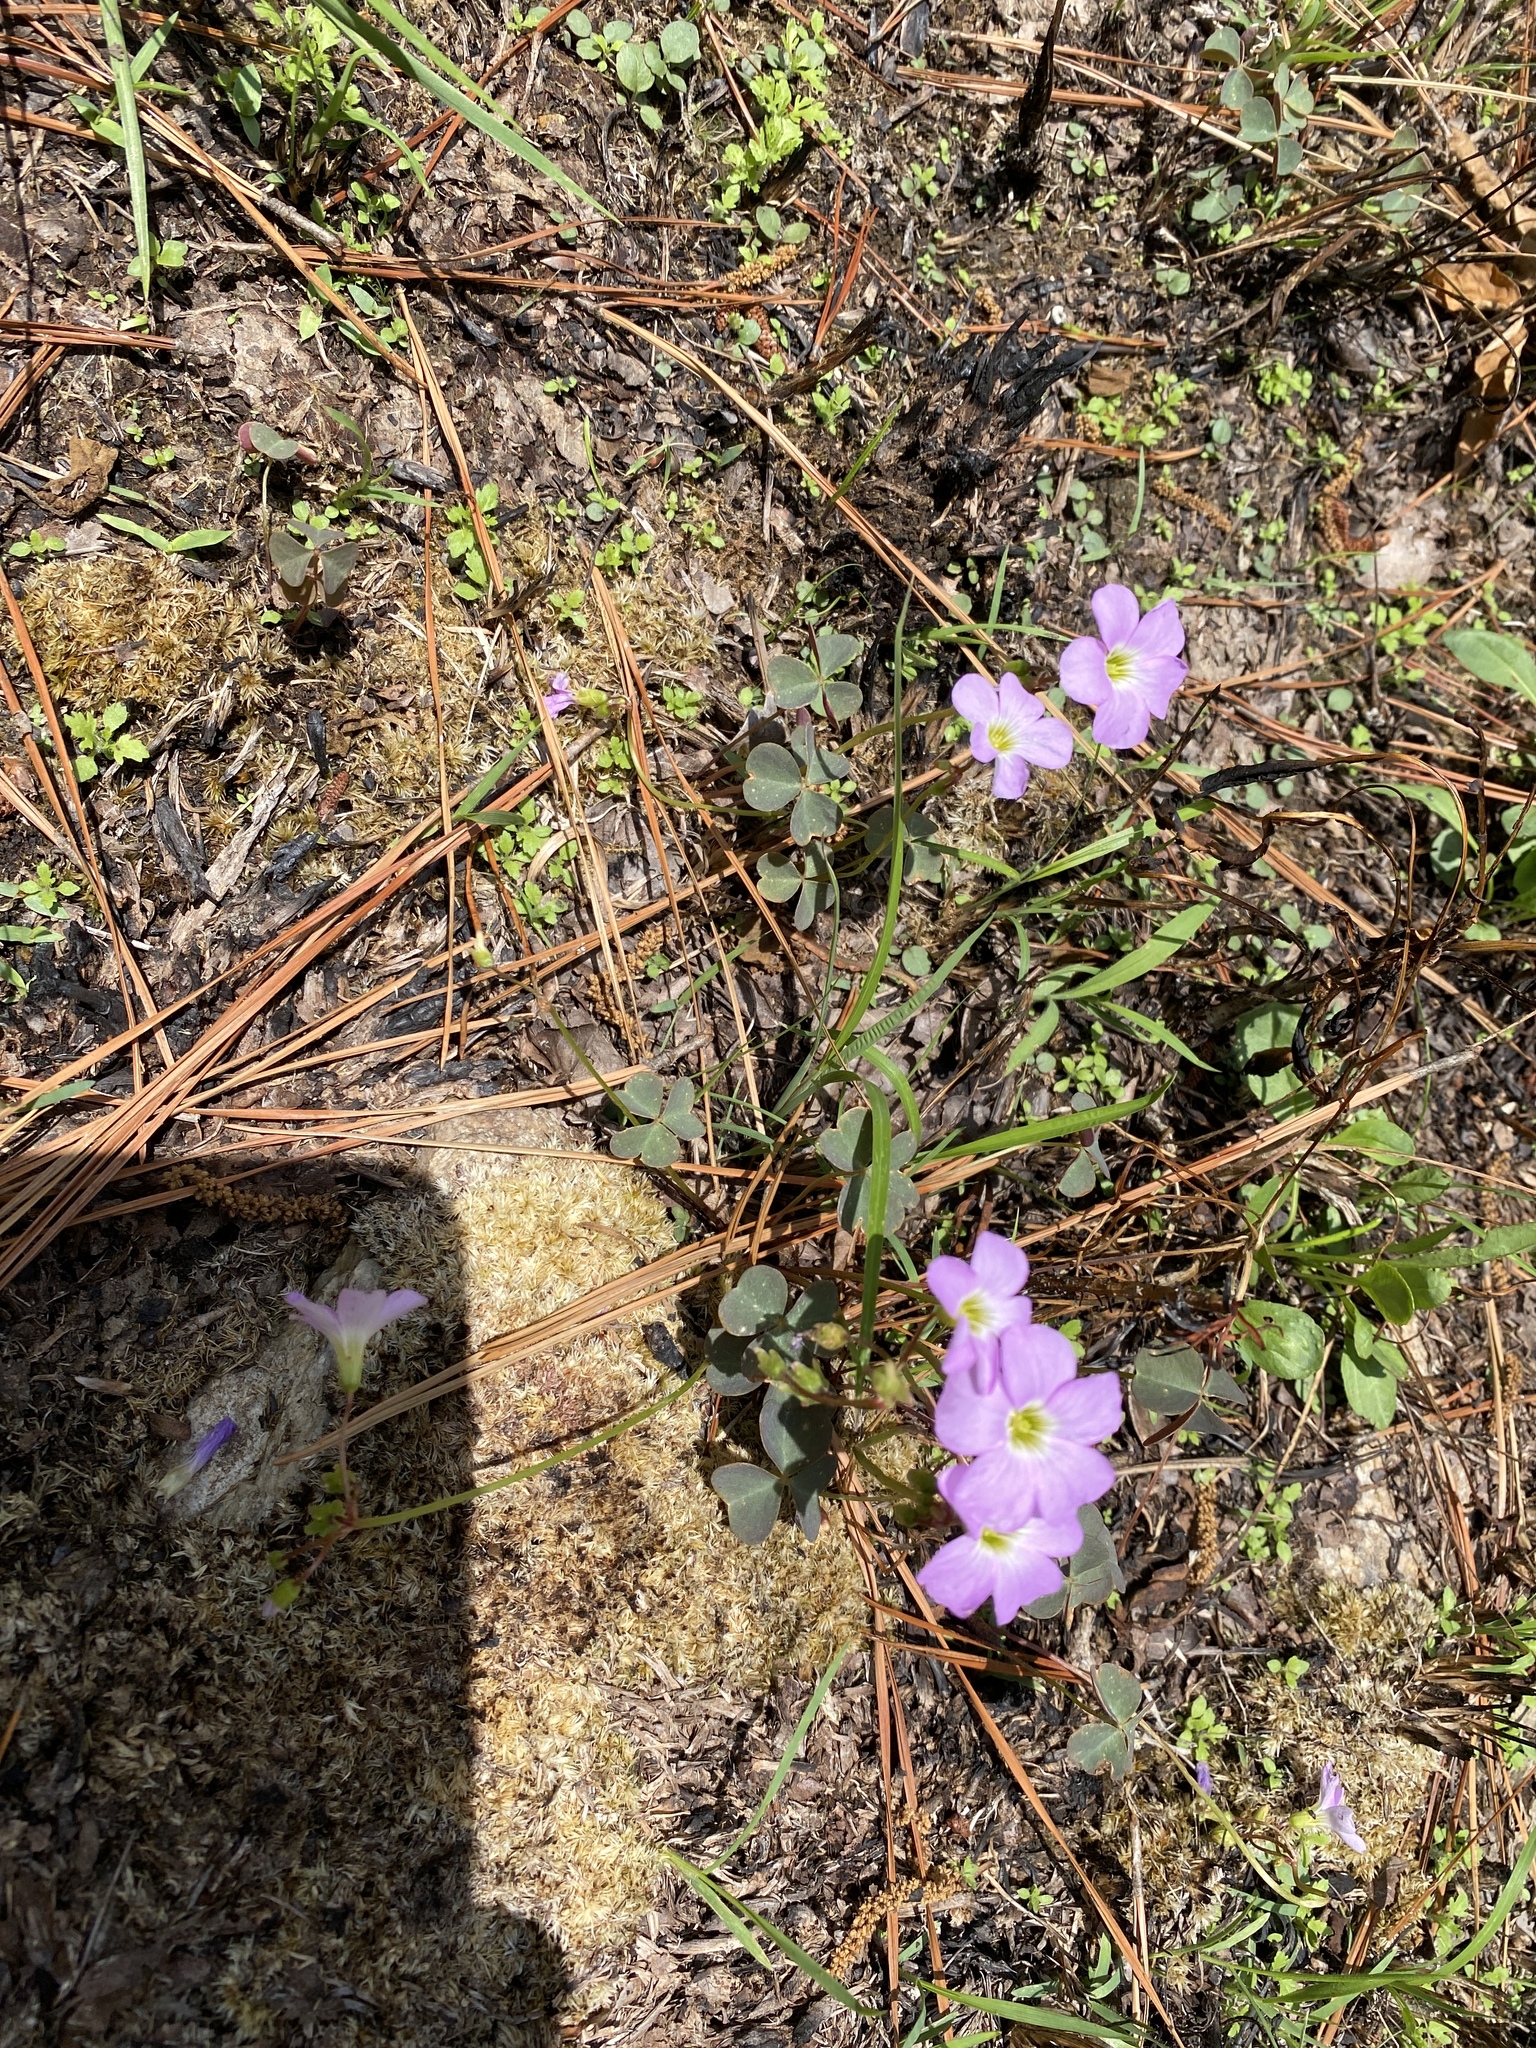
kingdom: Plantae
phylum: Tracheophyta
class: Magnoliopsida
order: Oxalidales
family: Oxalidaceae
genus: Oxalis
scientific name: Oxalis violacea
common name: Violet wood-sorrel
